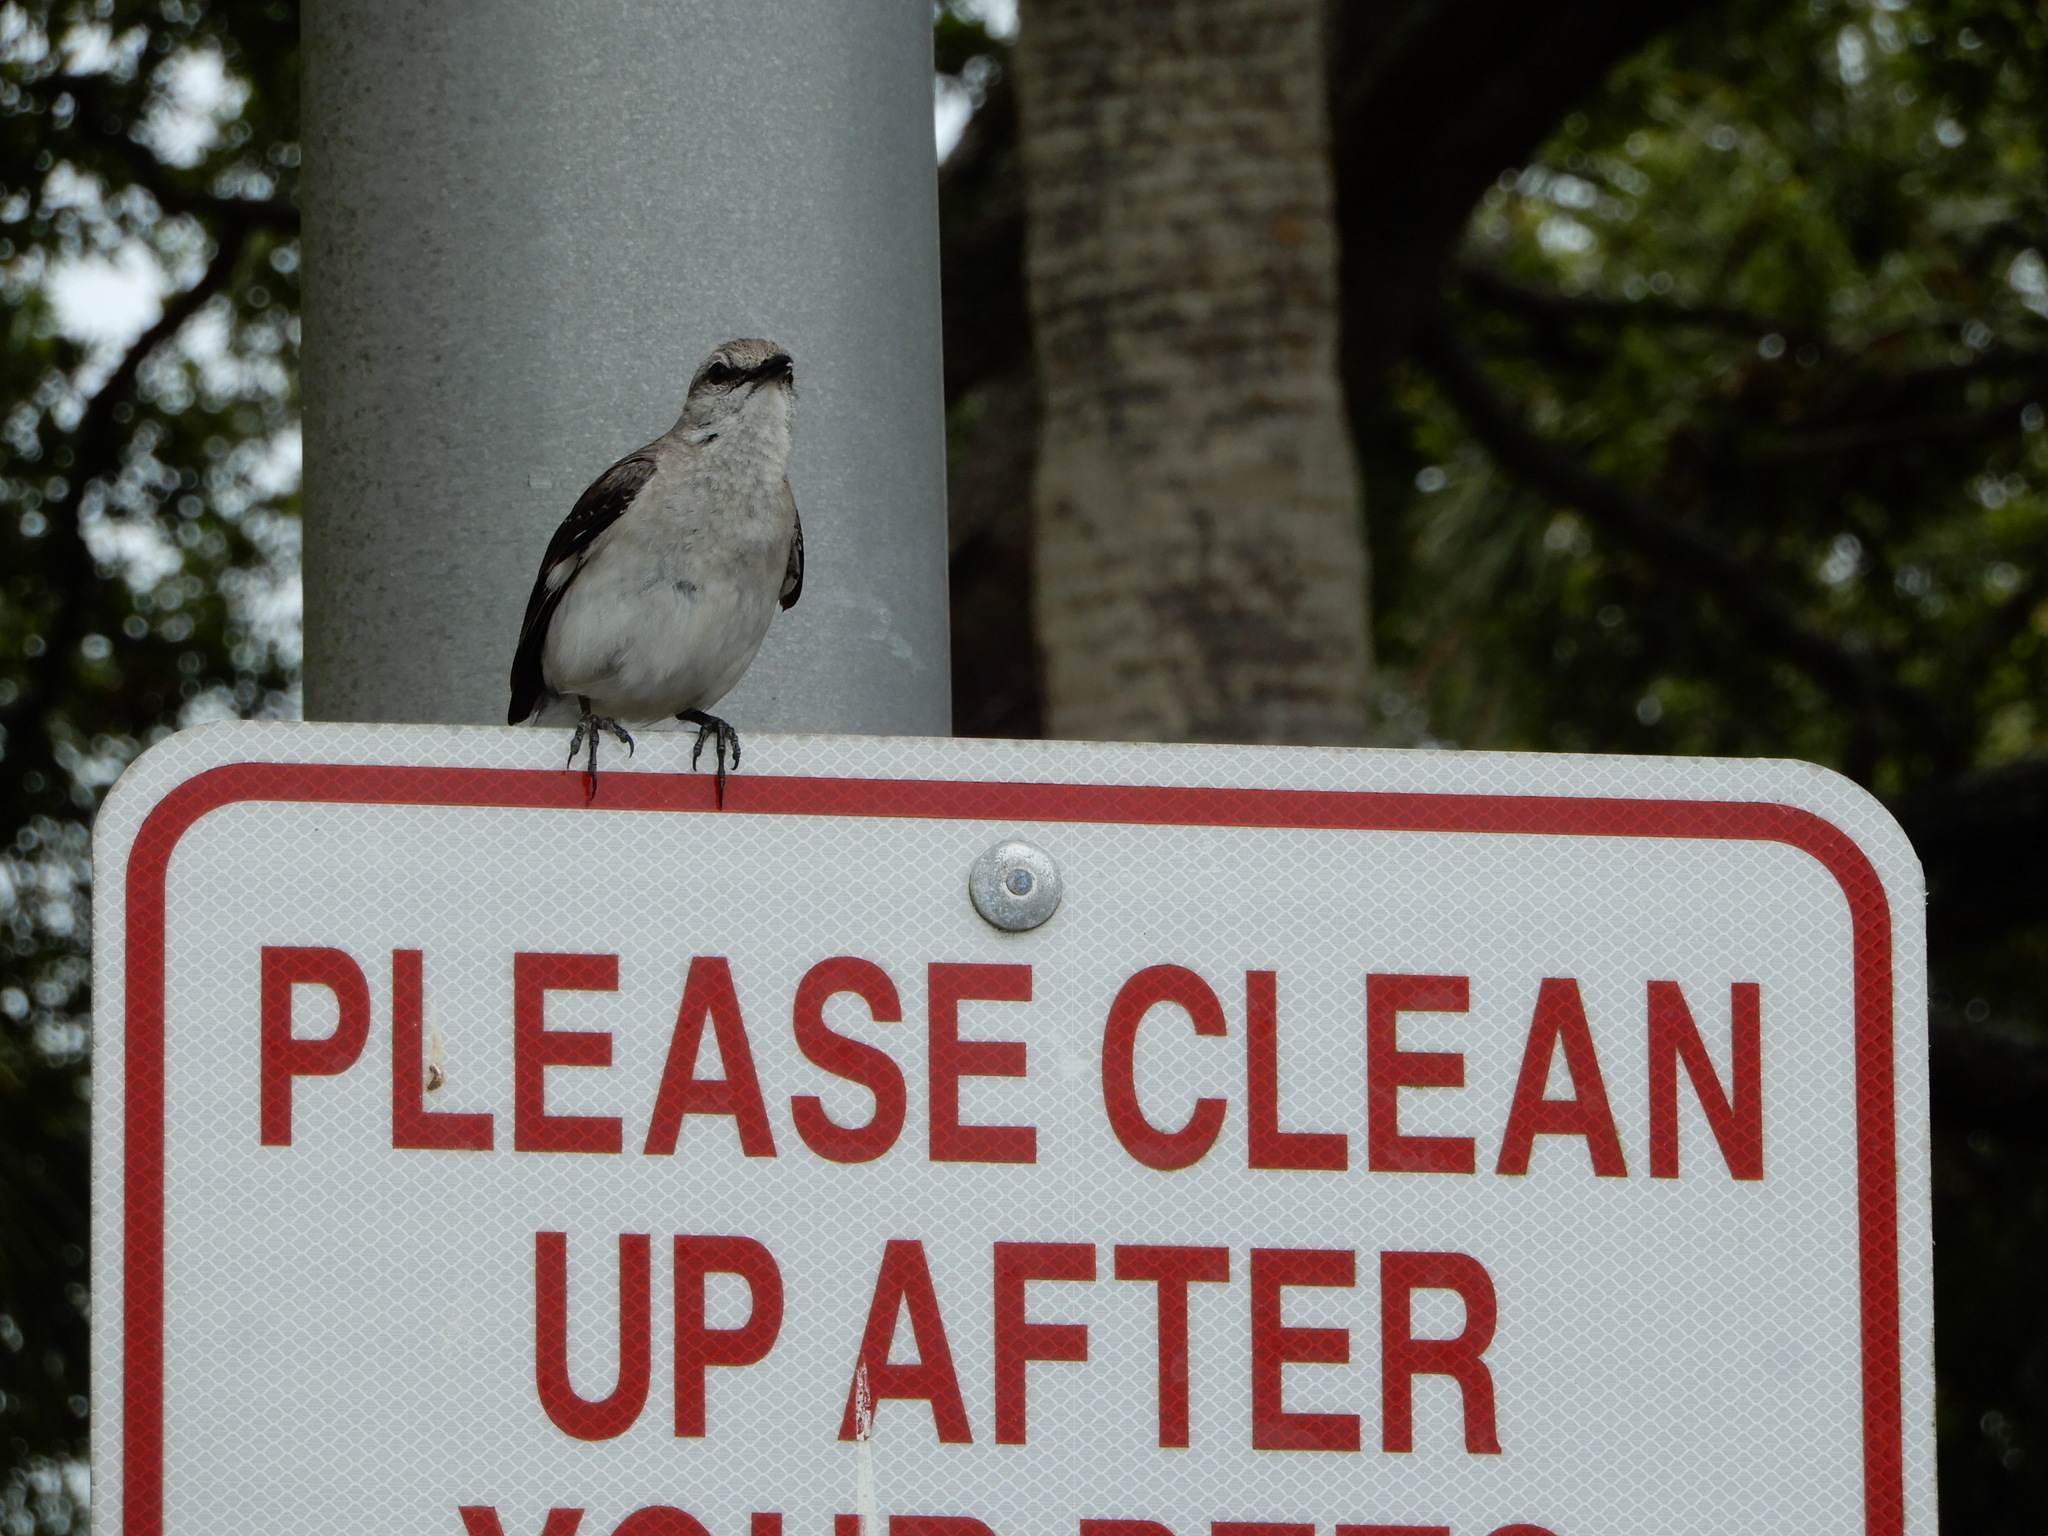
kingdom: Animalia
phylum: Chordata
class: Aves
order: Passeriformes
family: Mimidae
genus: Mimus
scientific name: Mimus polyglottos
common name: Northern mockingbird
